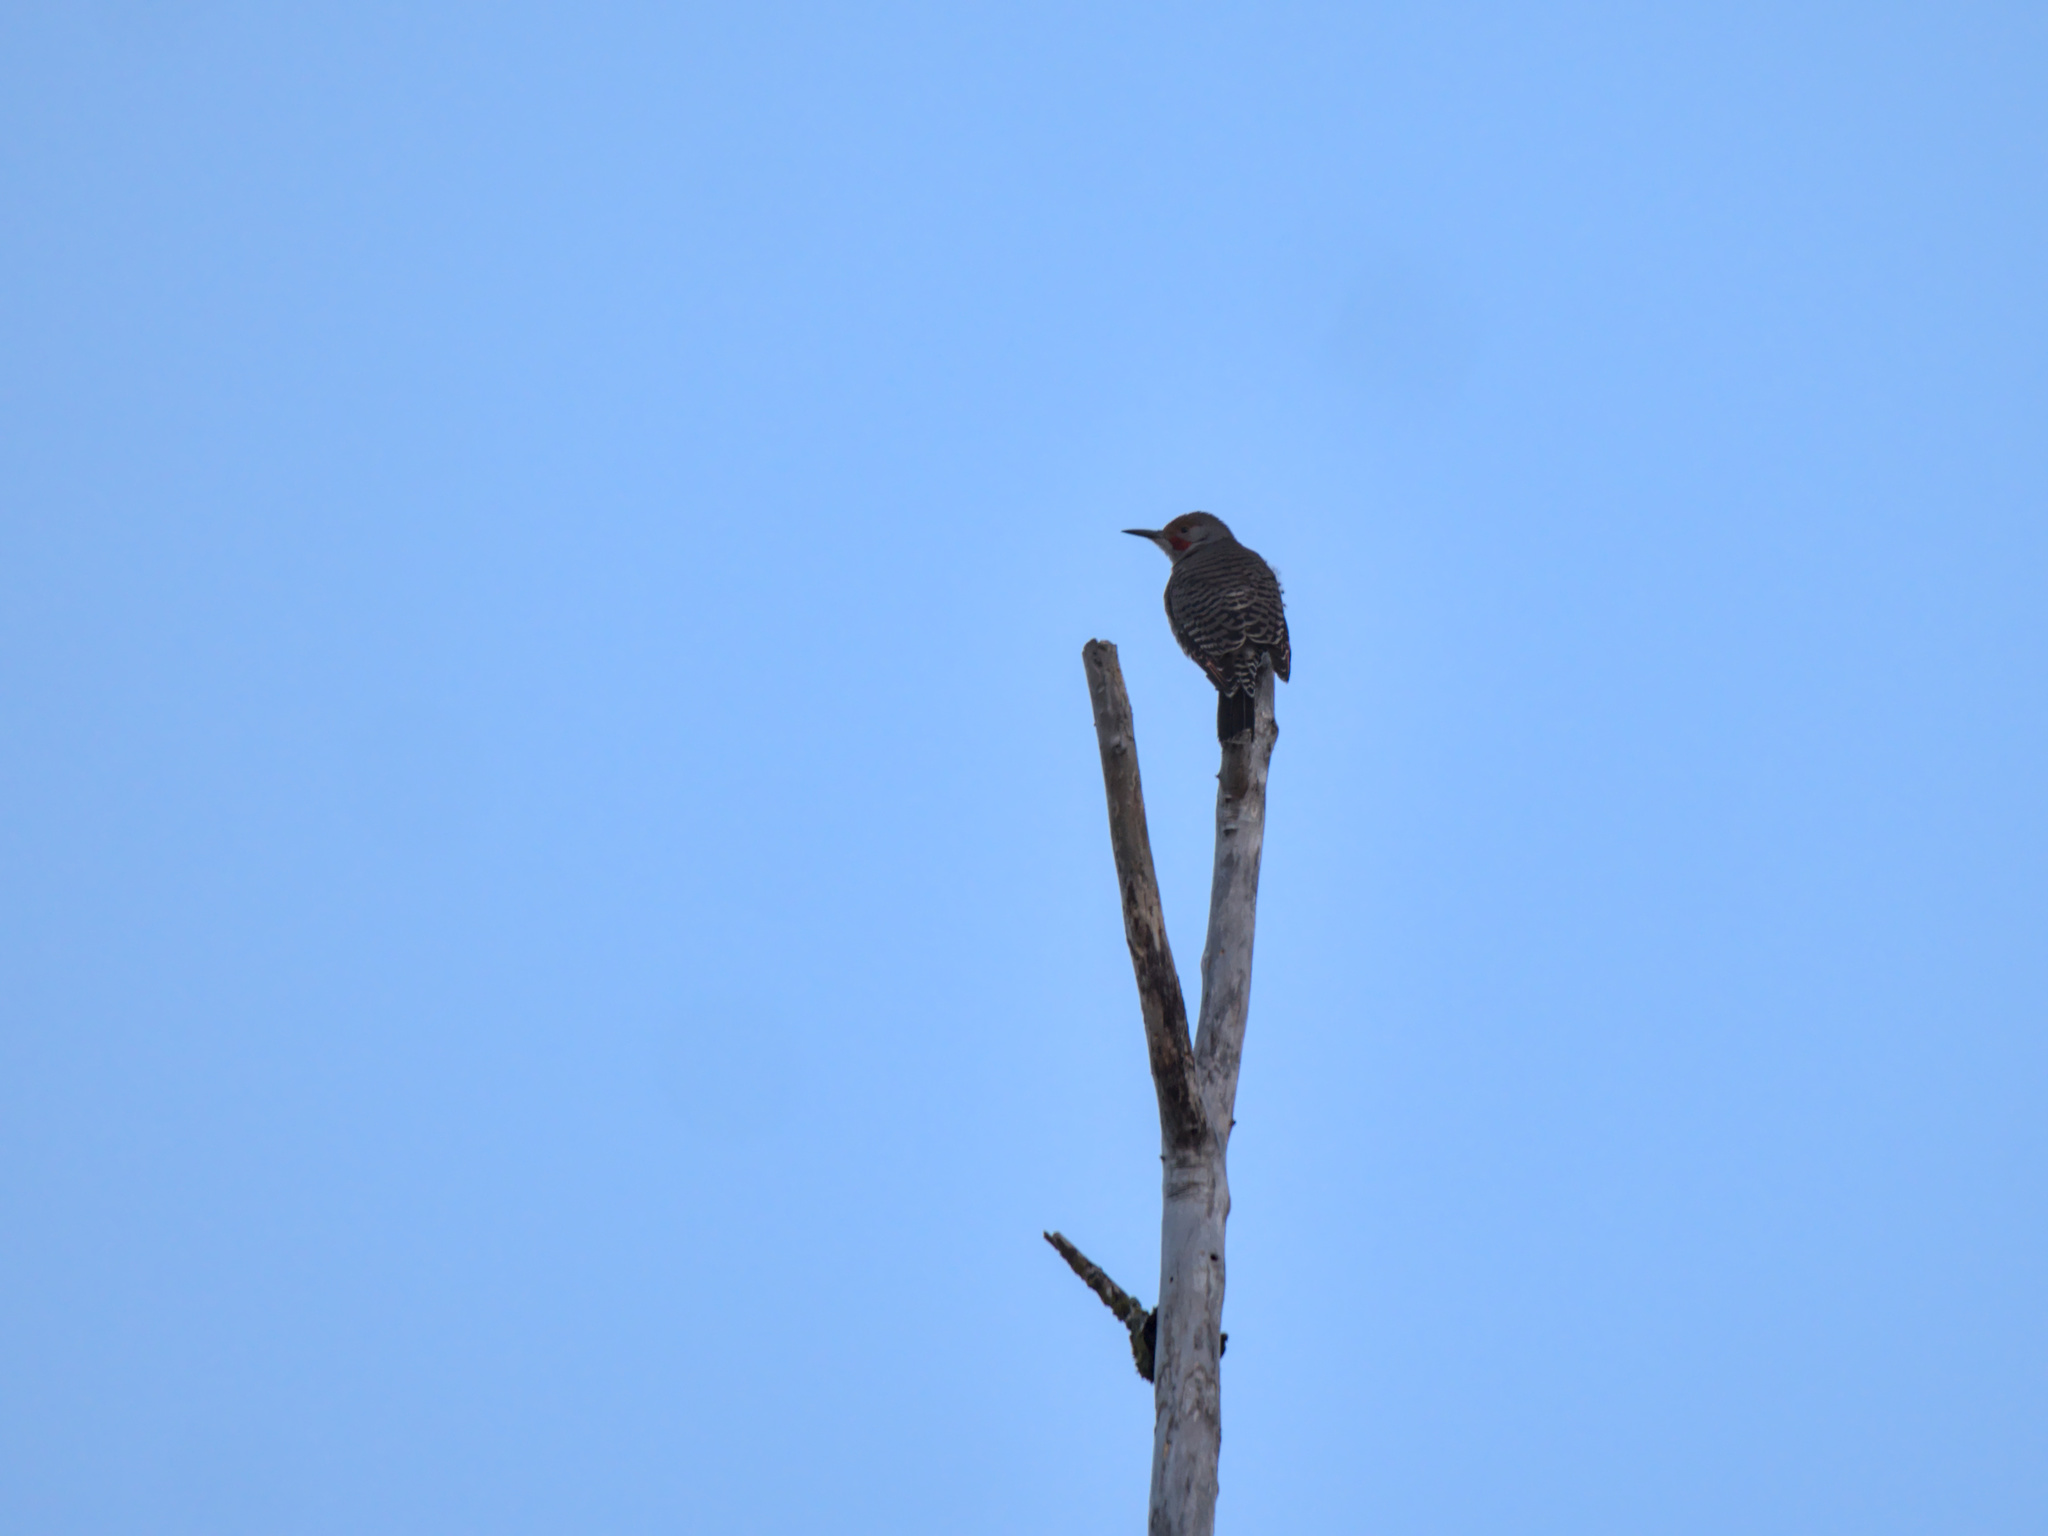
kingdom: Animalia
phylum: Chordata
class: Aves
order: Piciformes
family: Picidae
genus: Colaptes
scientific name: Colaptes auratus
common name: Northern flicker
